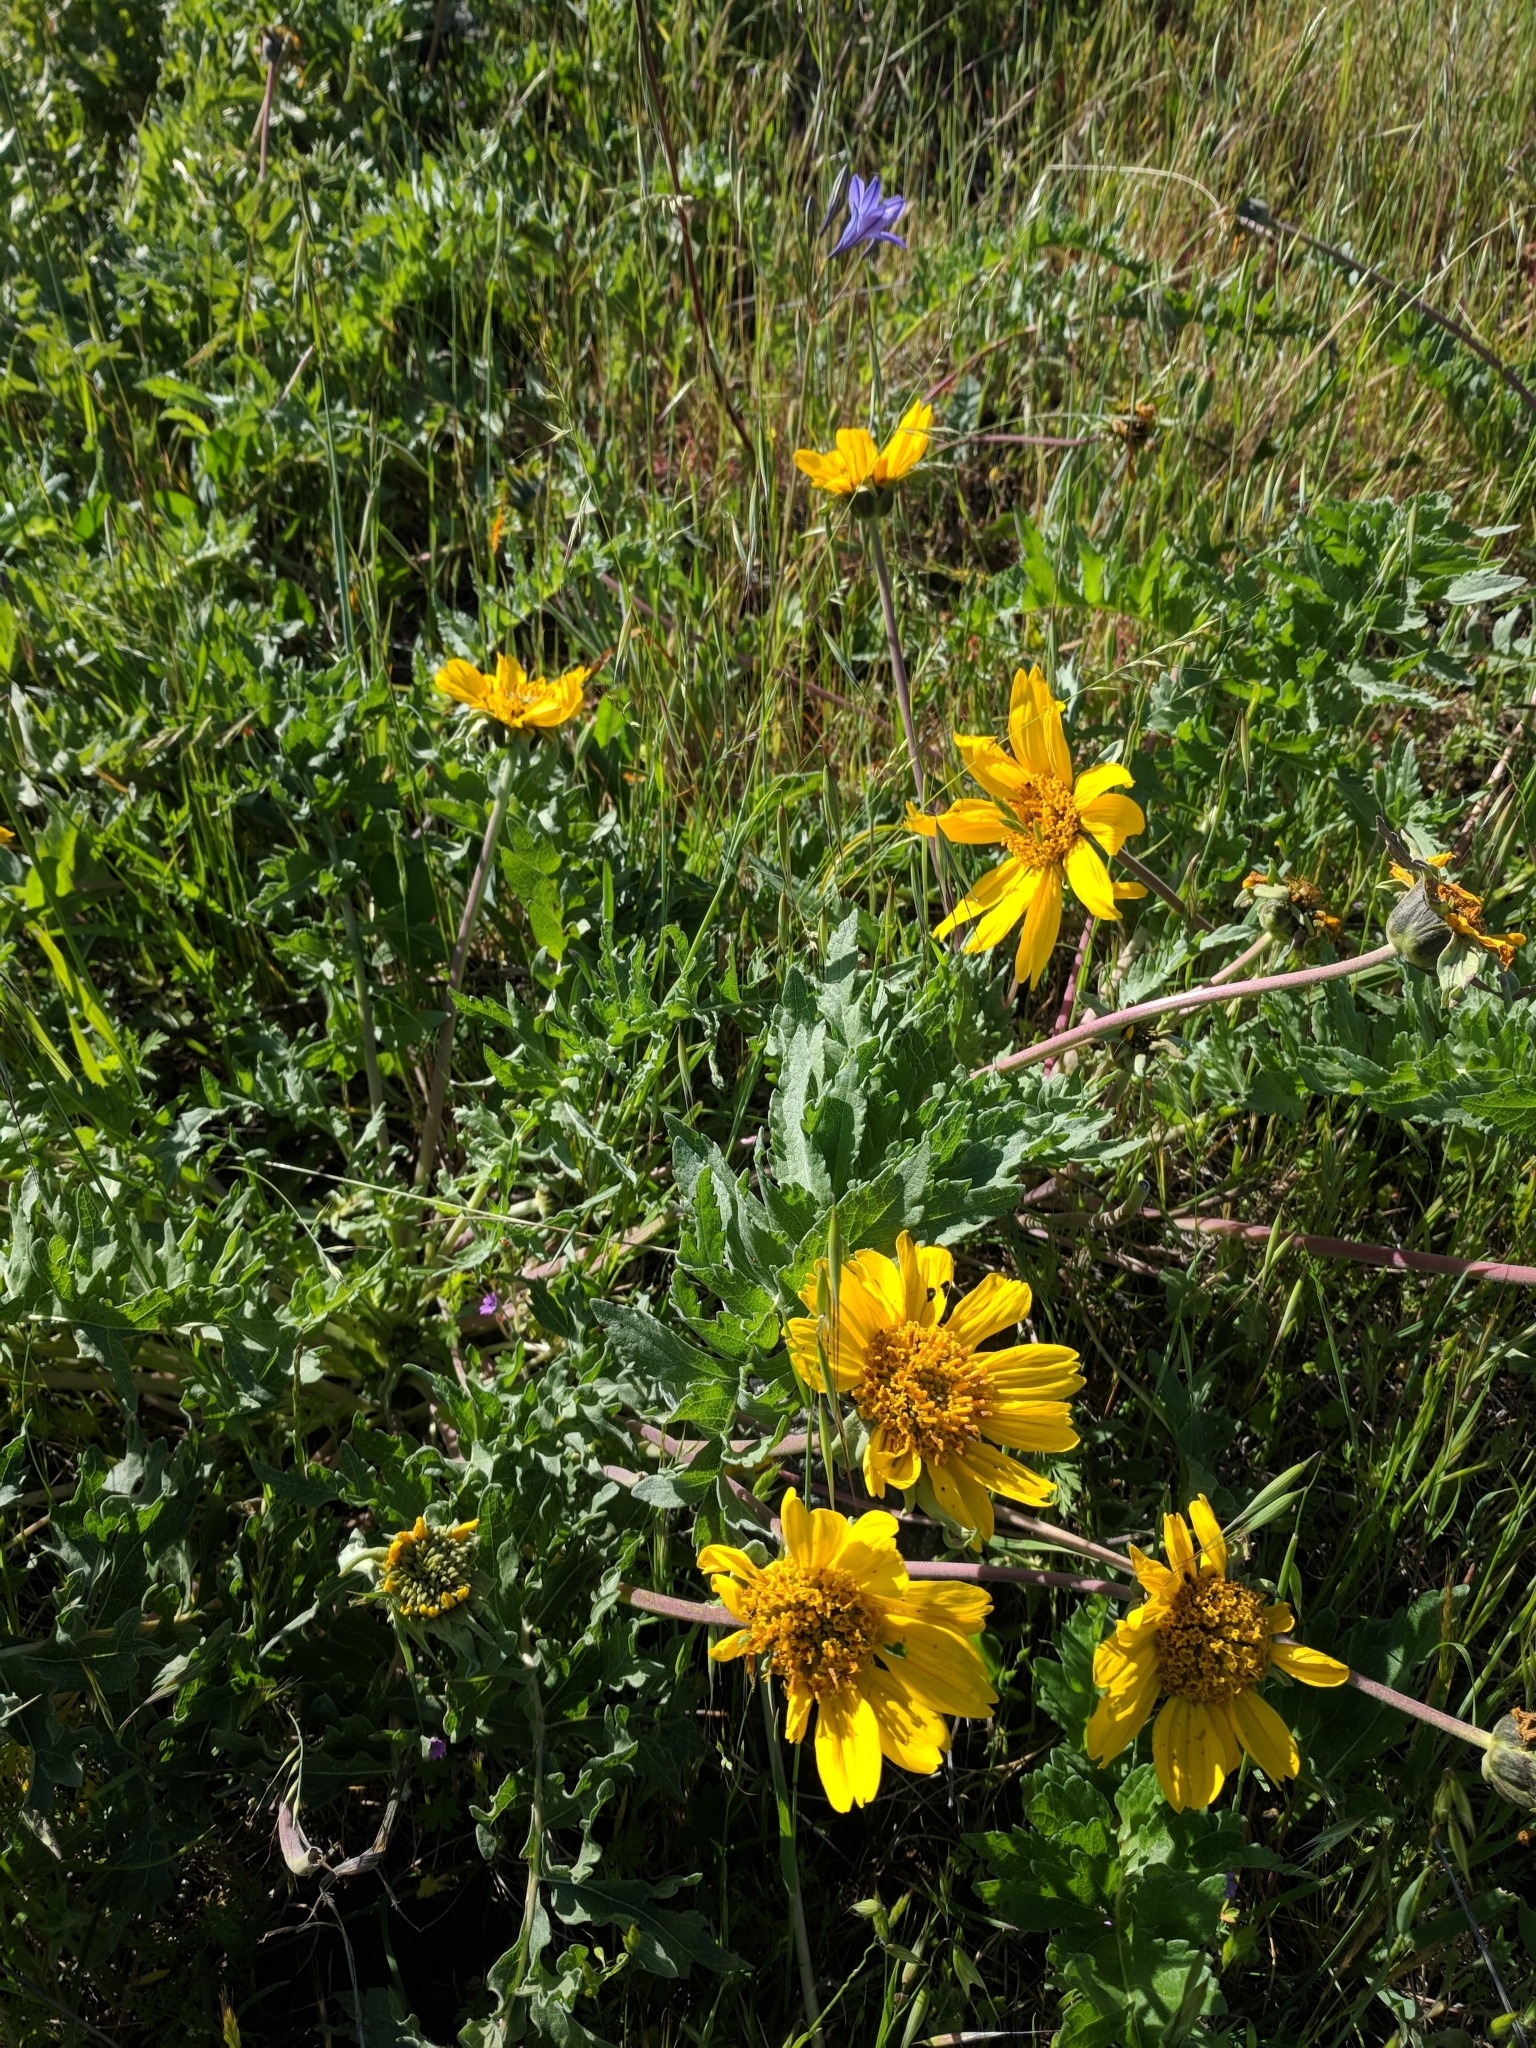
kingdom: Plantae
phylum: Tracheophyta
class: Magnoliopsida
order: Asterales
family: Asteraceae
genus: Balsamorhiza
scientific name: Balsamorhiza macrolepis
